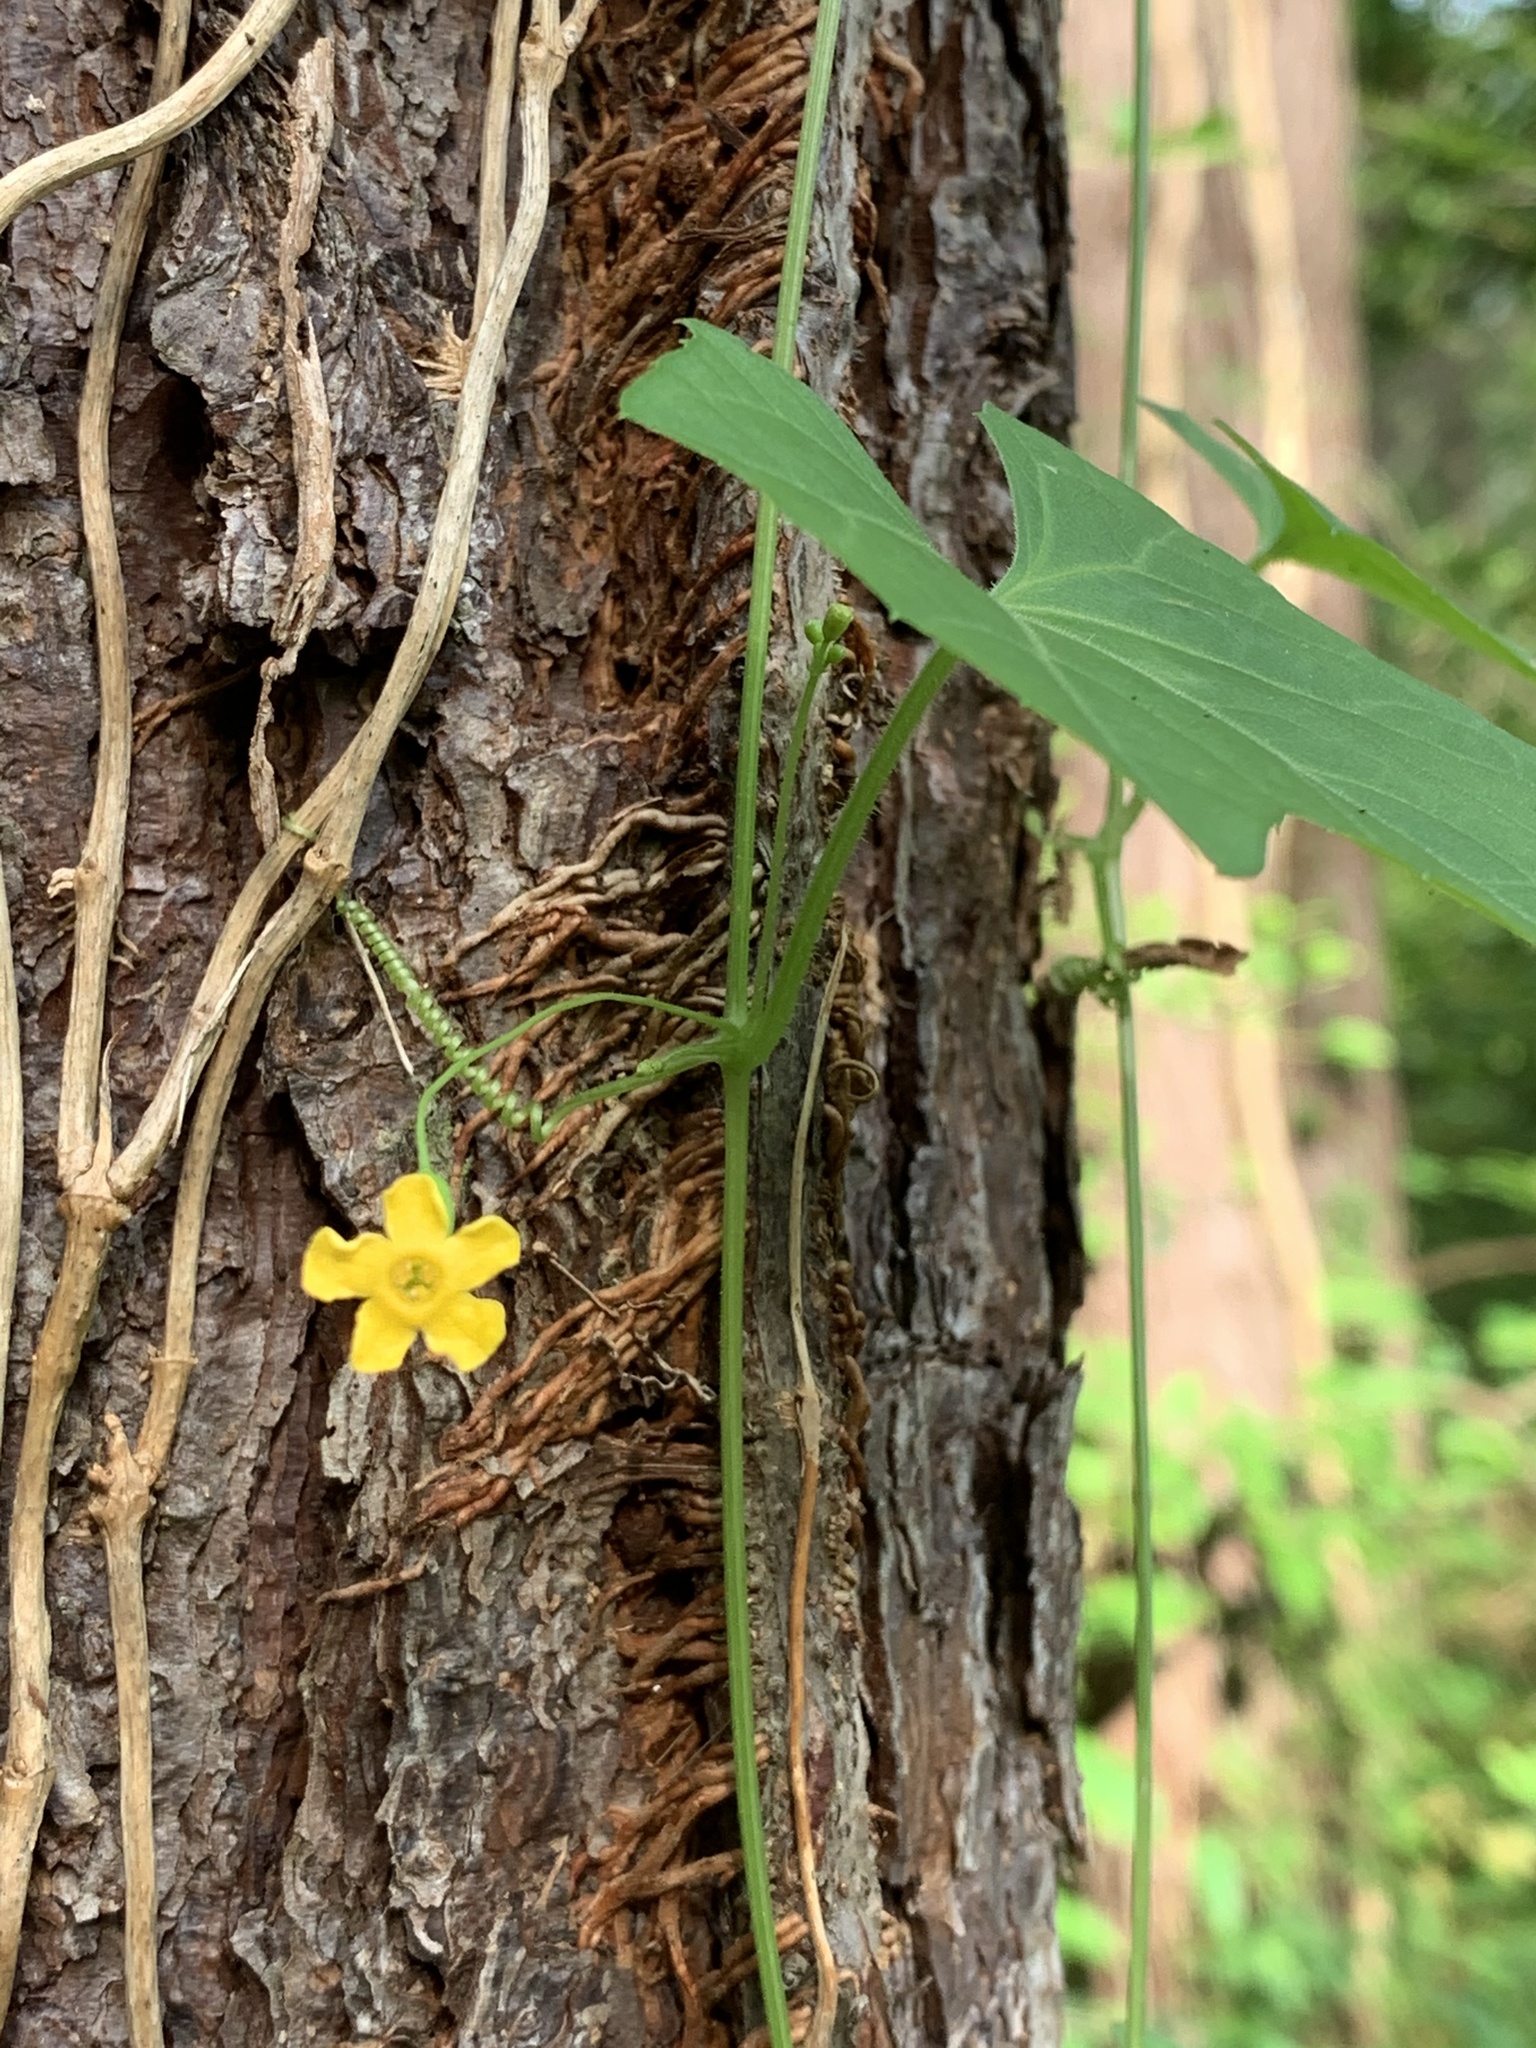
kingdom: Plantae
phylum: Tracheophyta
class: Magnoliopsida
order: Cucurbitales
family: Cucurbitaceae
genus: Melothria
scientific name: Melothria pendula
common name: Creeping-cucumber
